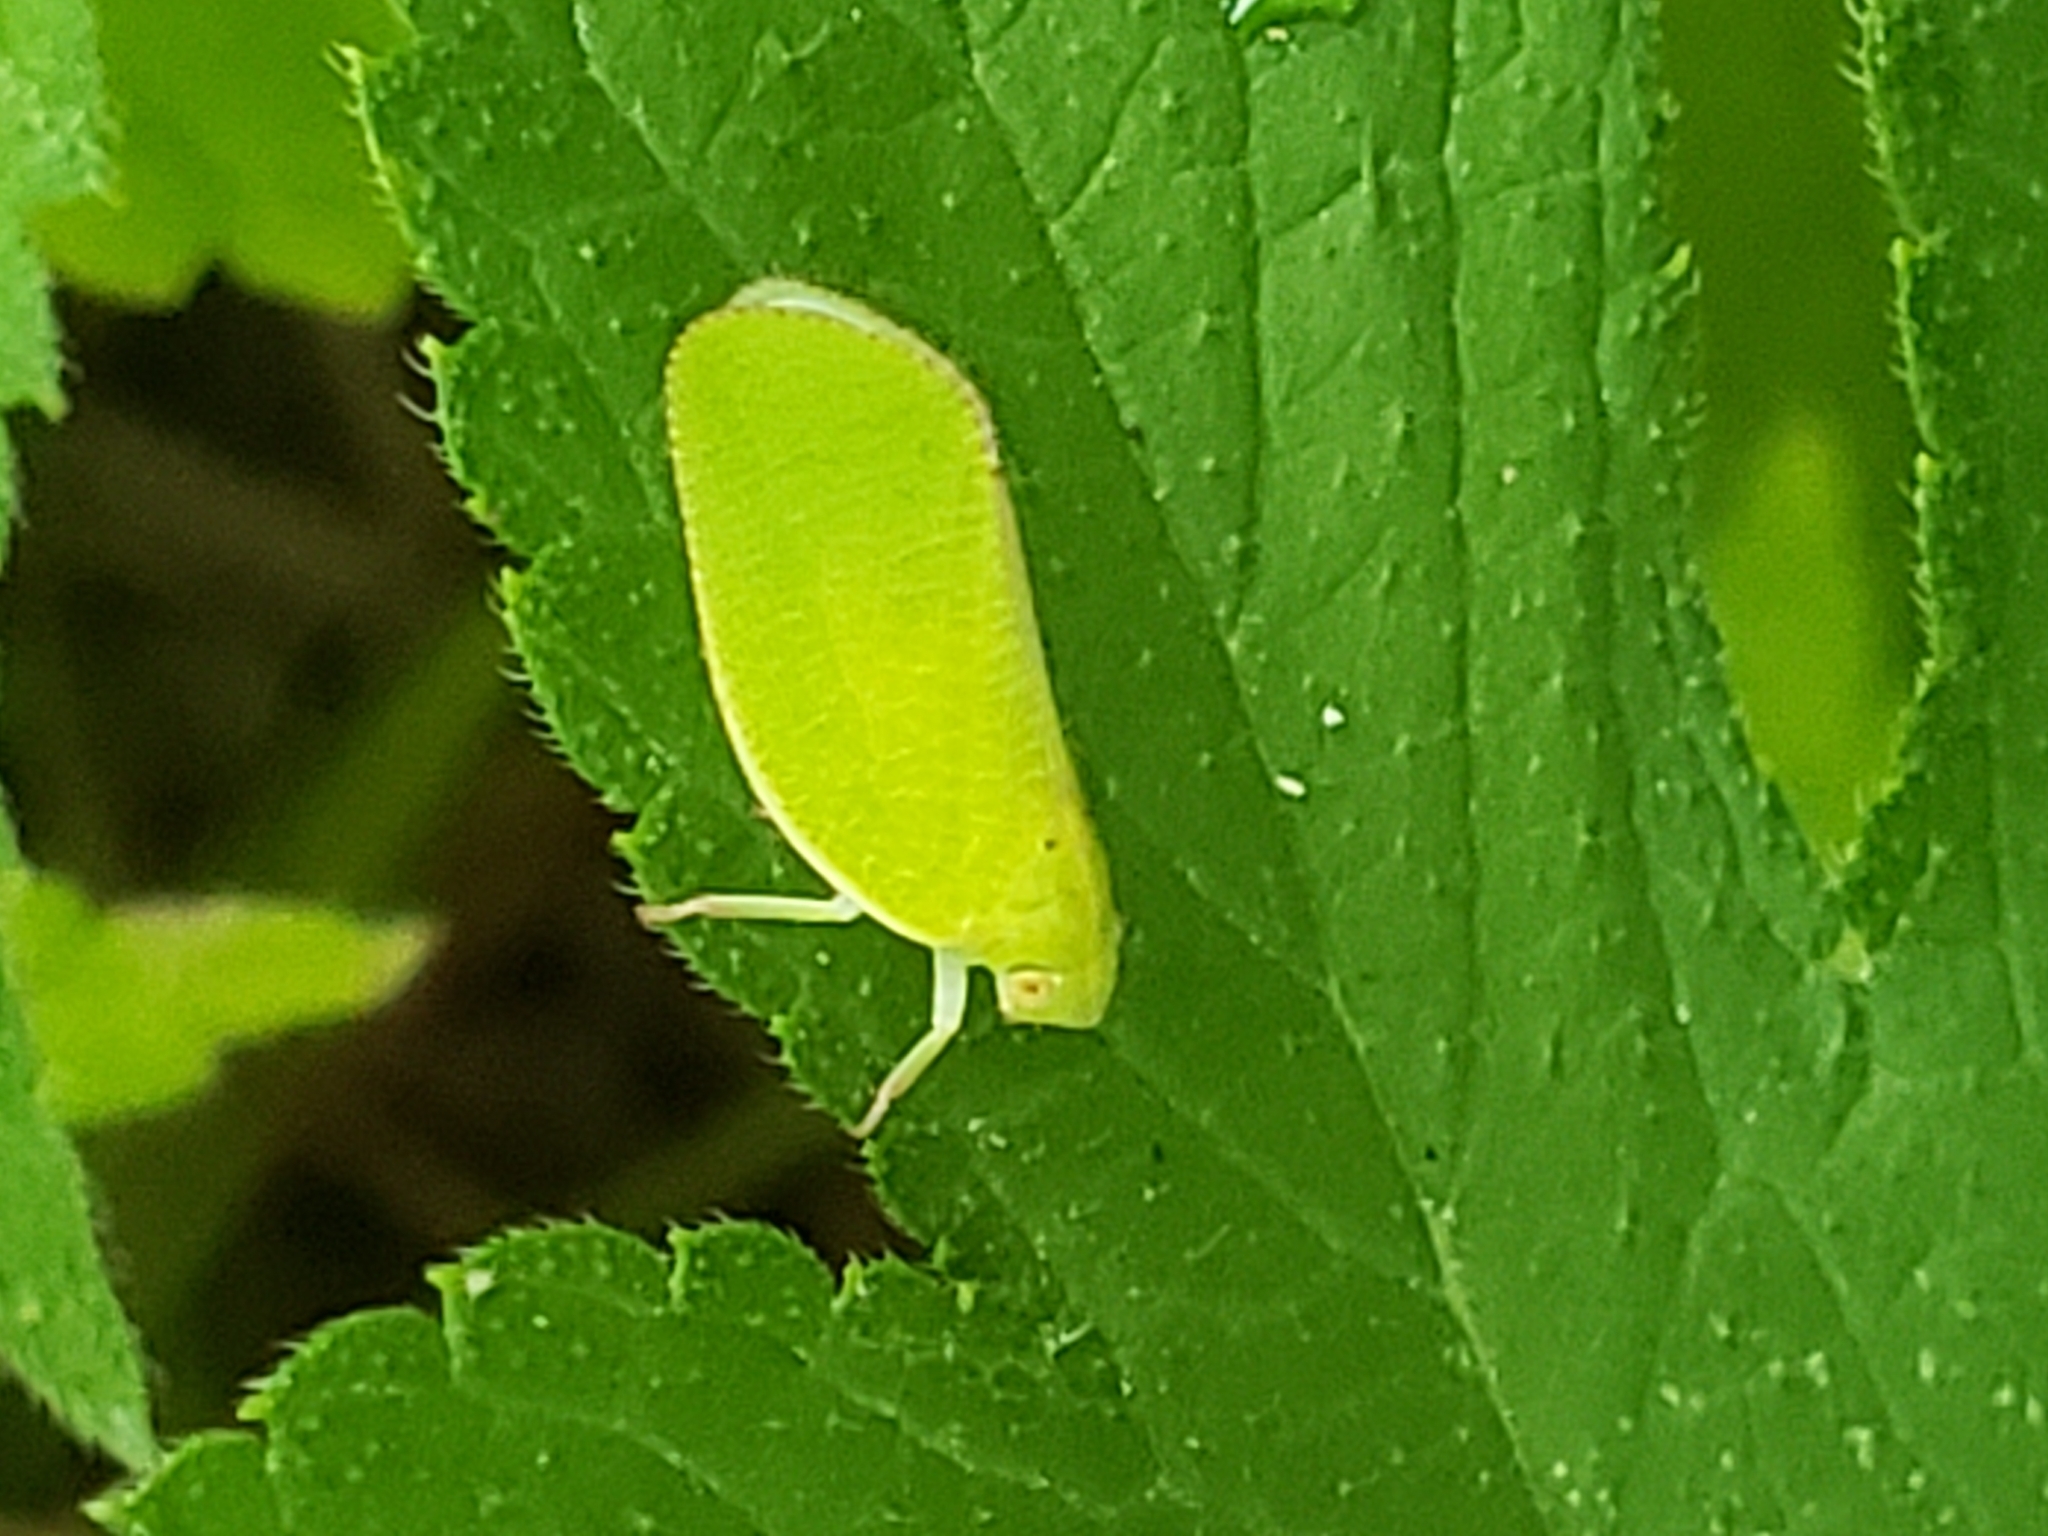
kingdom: Animalia
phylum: Arthropoda
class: Insecta
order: Hemiptera
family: Acanaloniidae
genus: Acanalonia
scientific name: Acanalonia conica
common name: Green cone-headed planthopper
